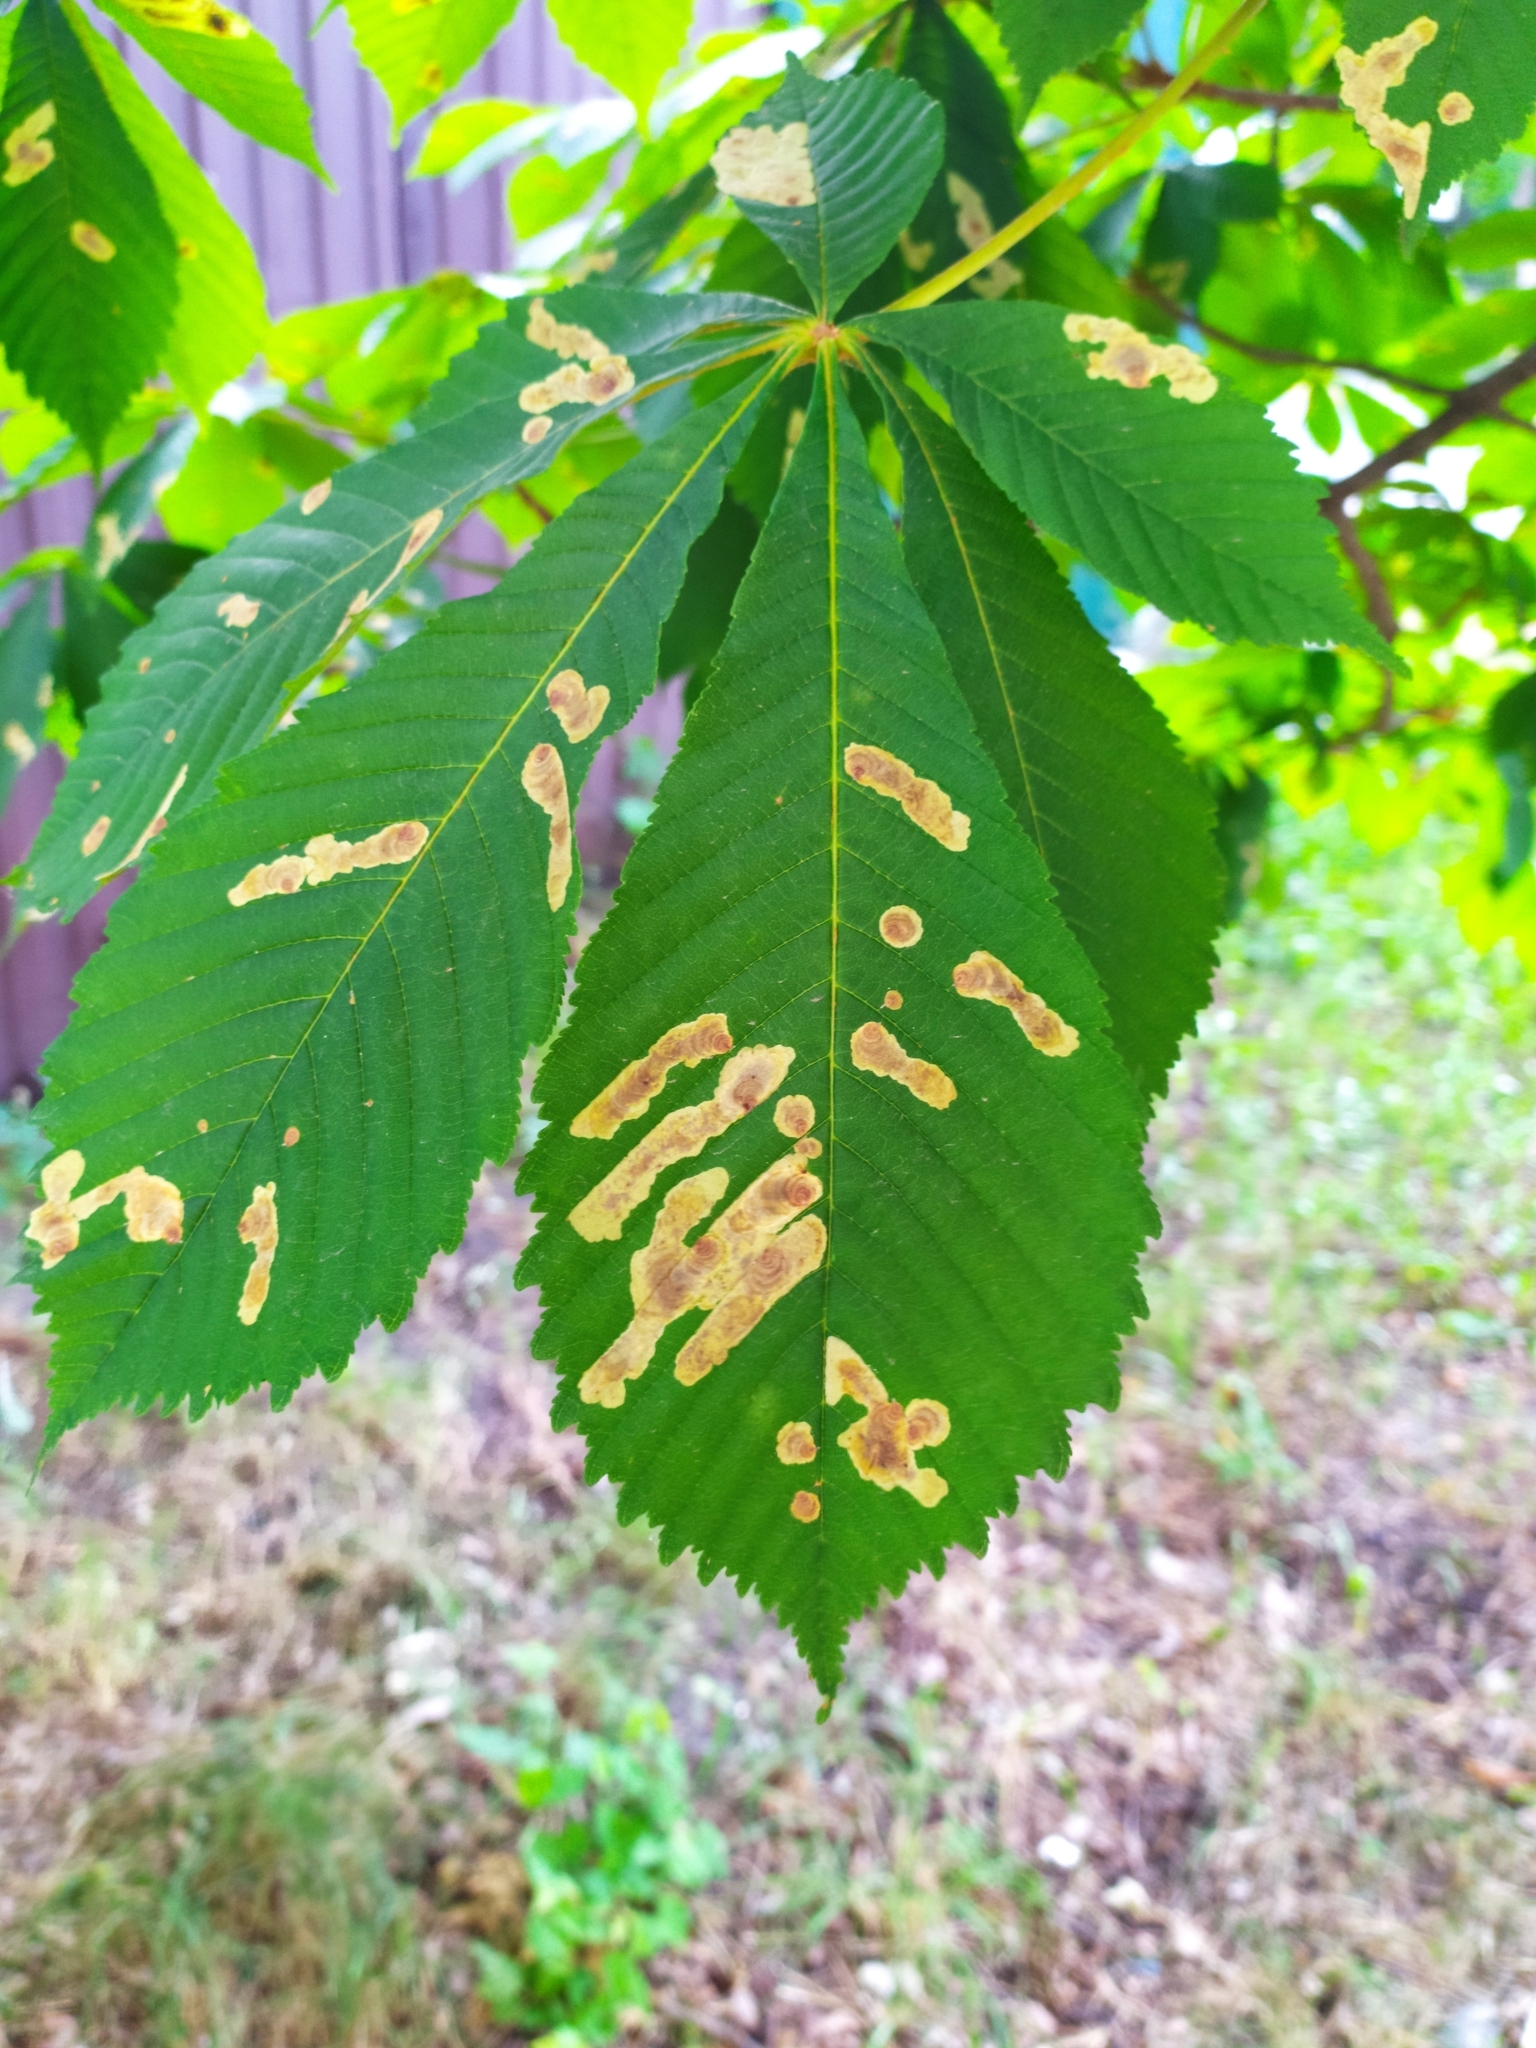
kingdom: Animalia
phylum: Arthropoda
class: Insecta
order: Lepidoptera
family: Gracillariidae
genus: Cameraria
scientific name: Cameraria ohridella
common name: Horse-chestnut leaf-miner
